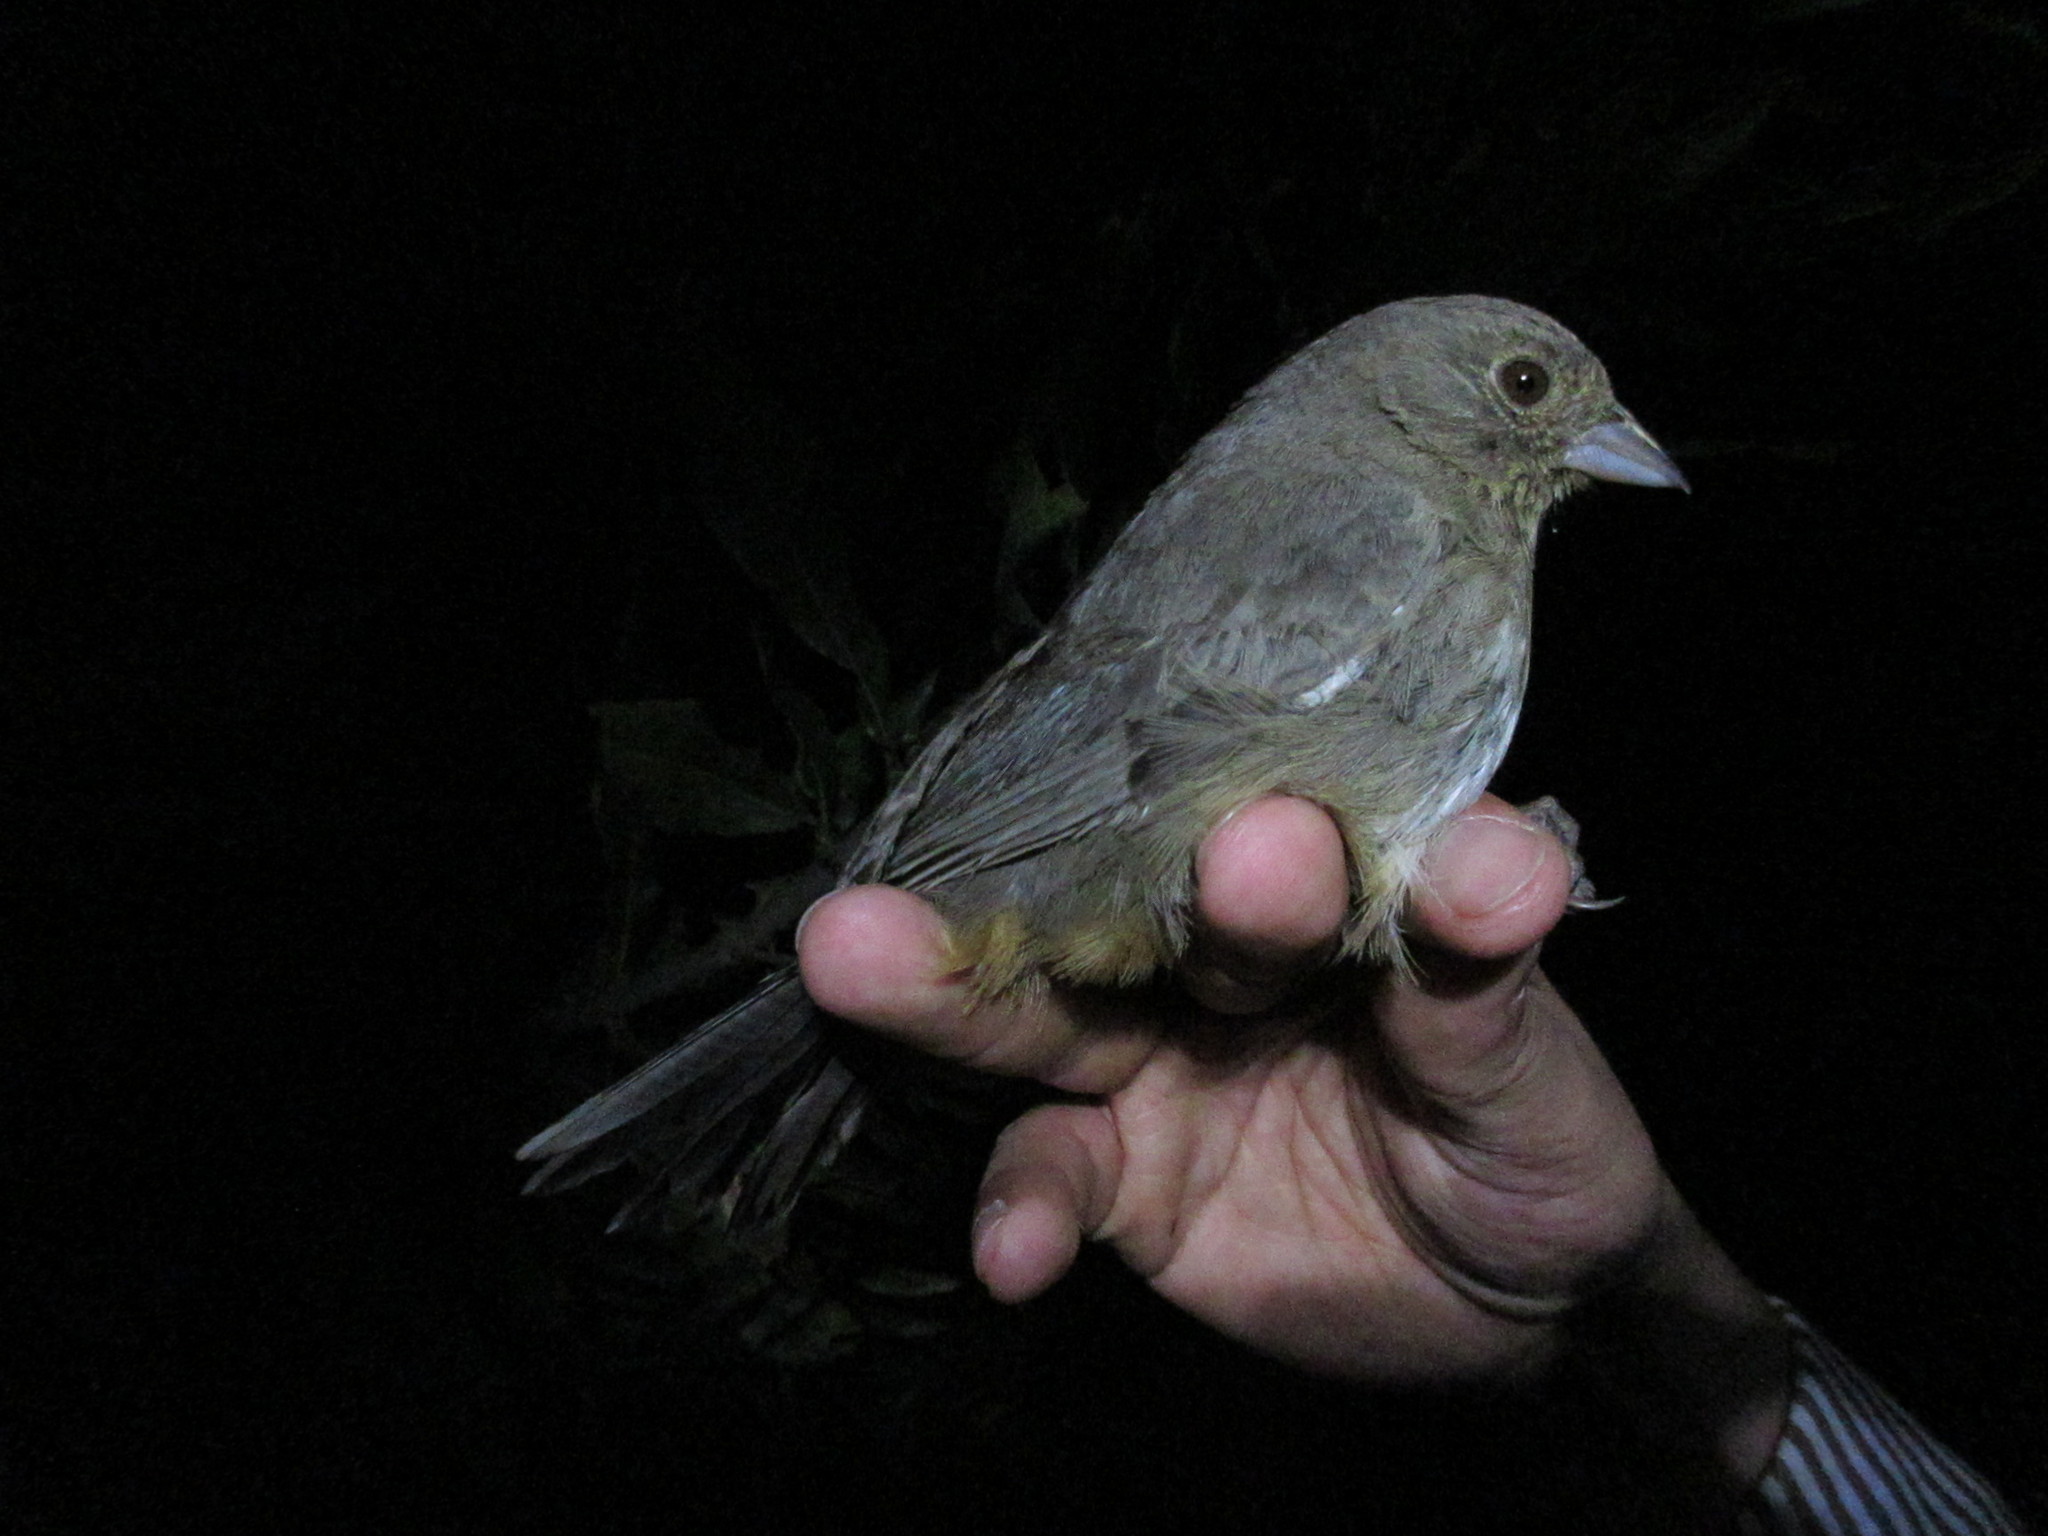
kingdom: Animalia
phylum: Chordata
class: Aves
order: Passeriformes
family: Passerellidae
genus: Melozone
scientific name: Melozone fusca
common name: Canyon towhee
